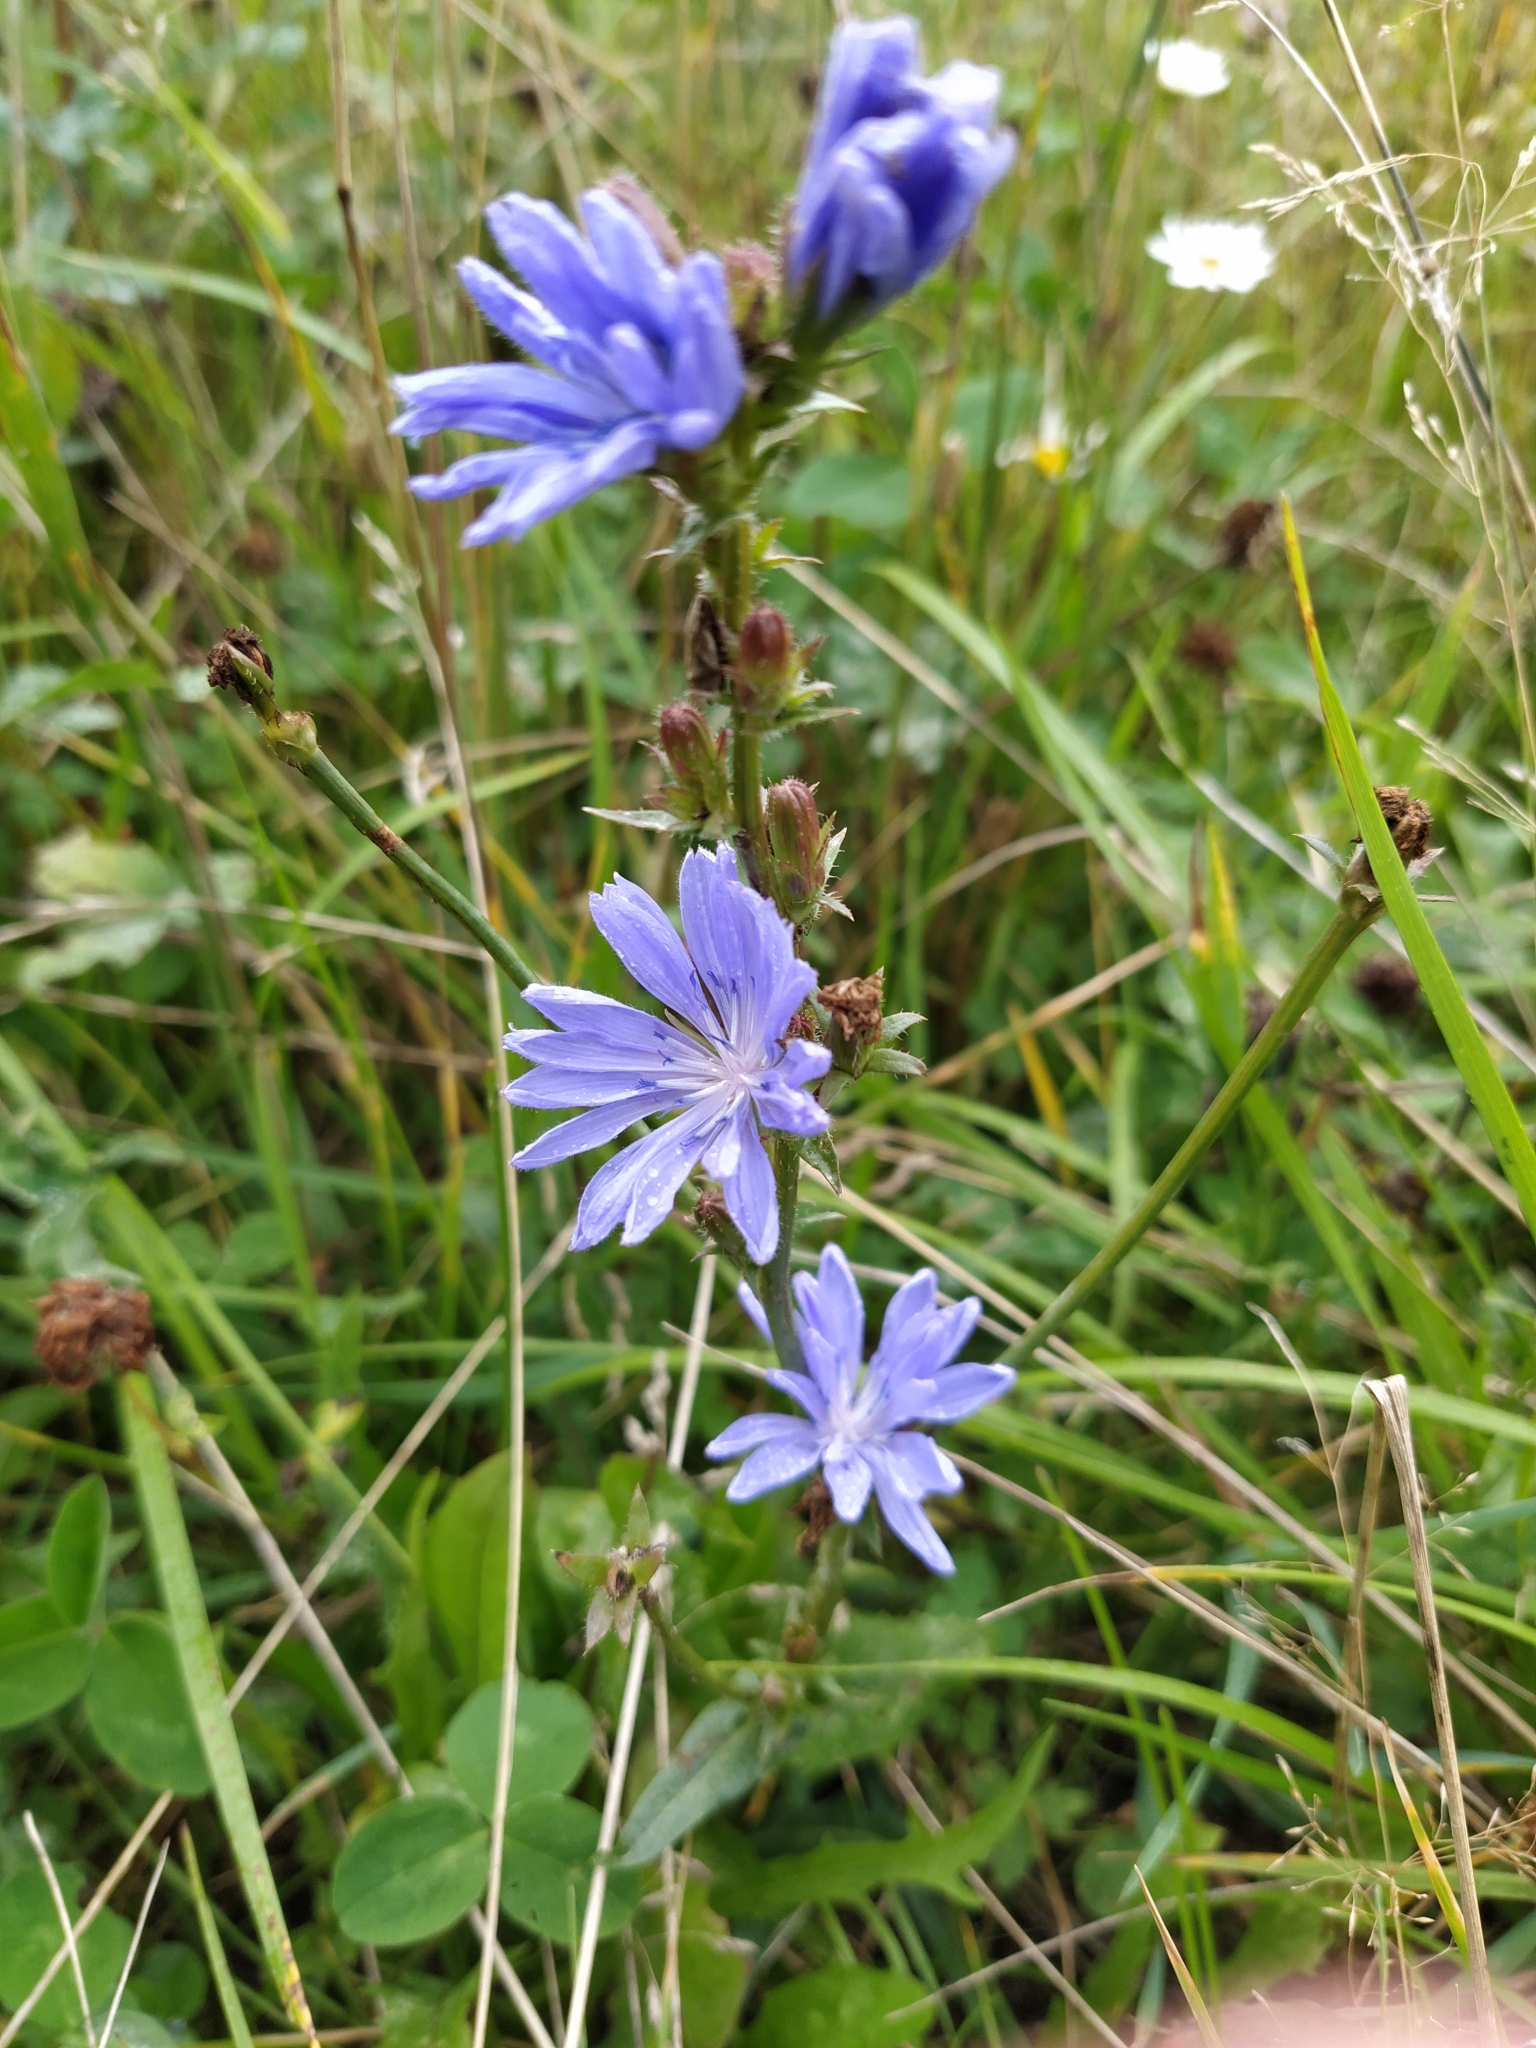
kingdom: Plantae
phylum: Tracheophyta
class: Magnoliopsida
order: Asterales
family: Asteraceae
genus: Cichorium
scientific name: Cichorium intybus
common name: Chicory
